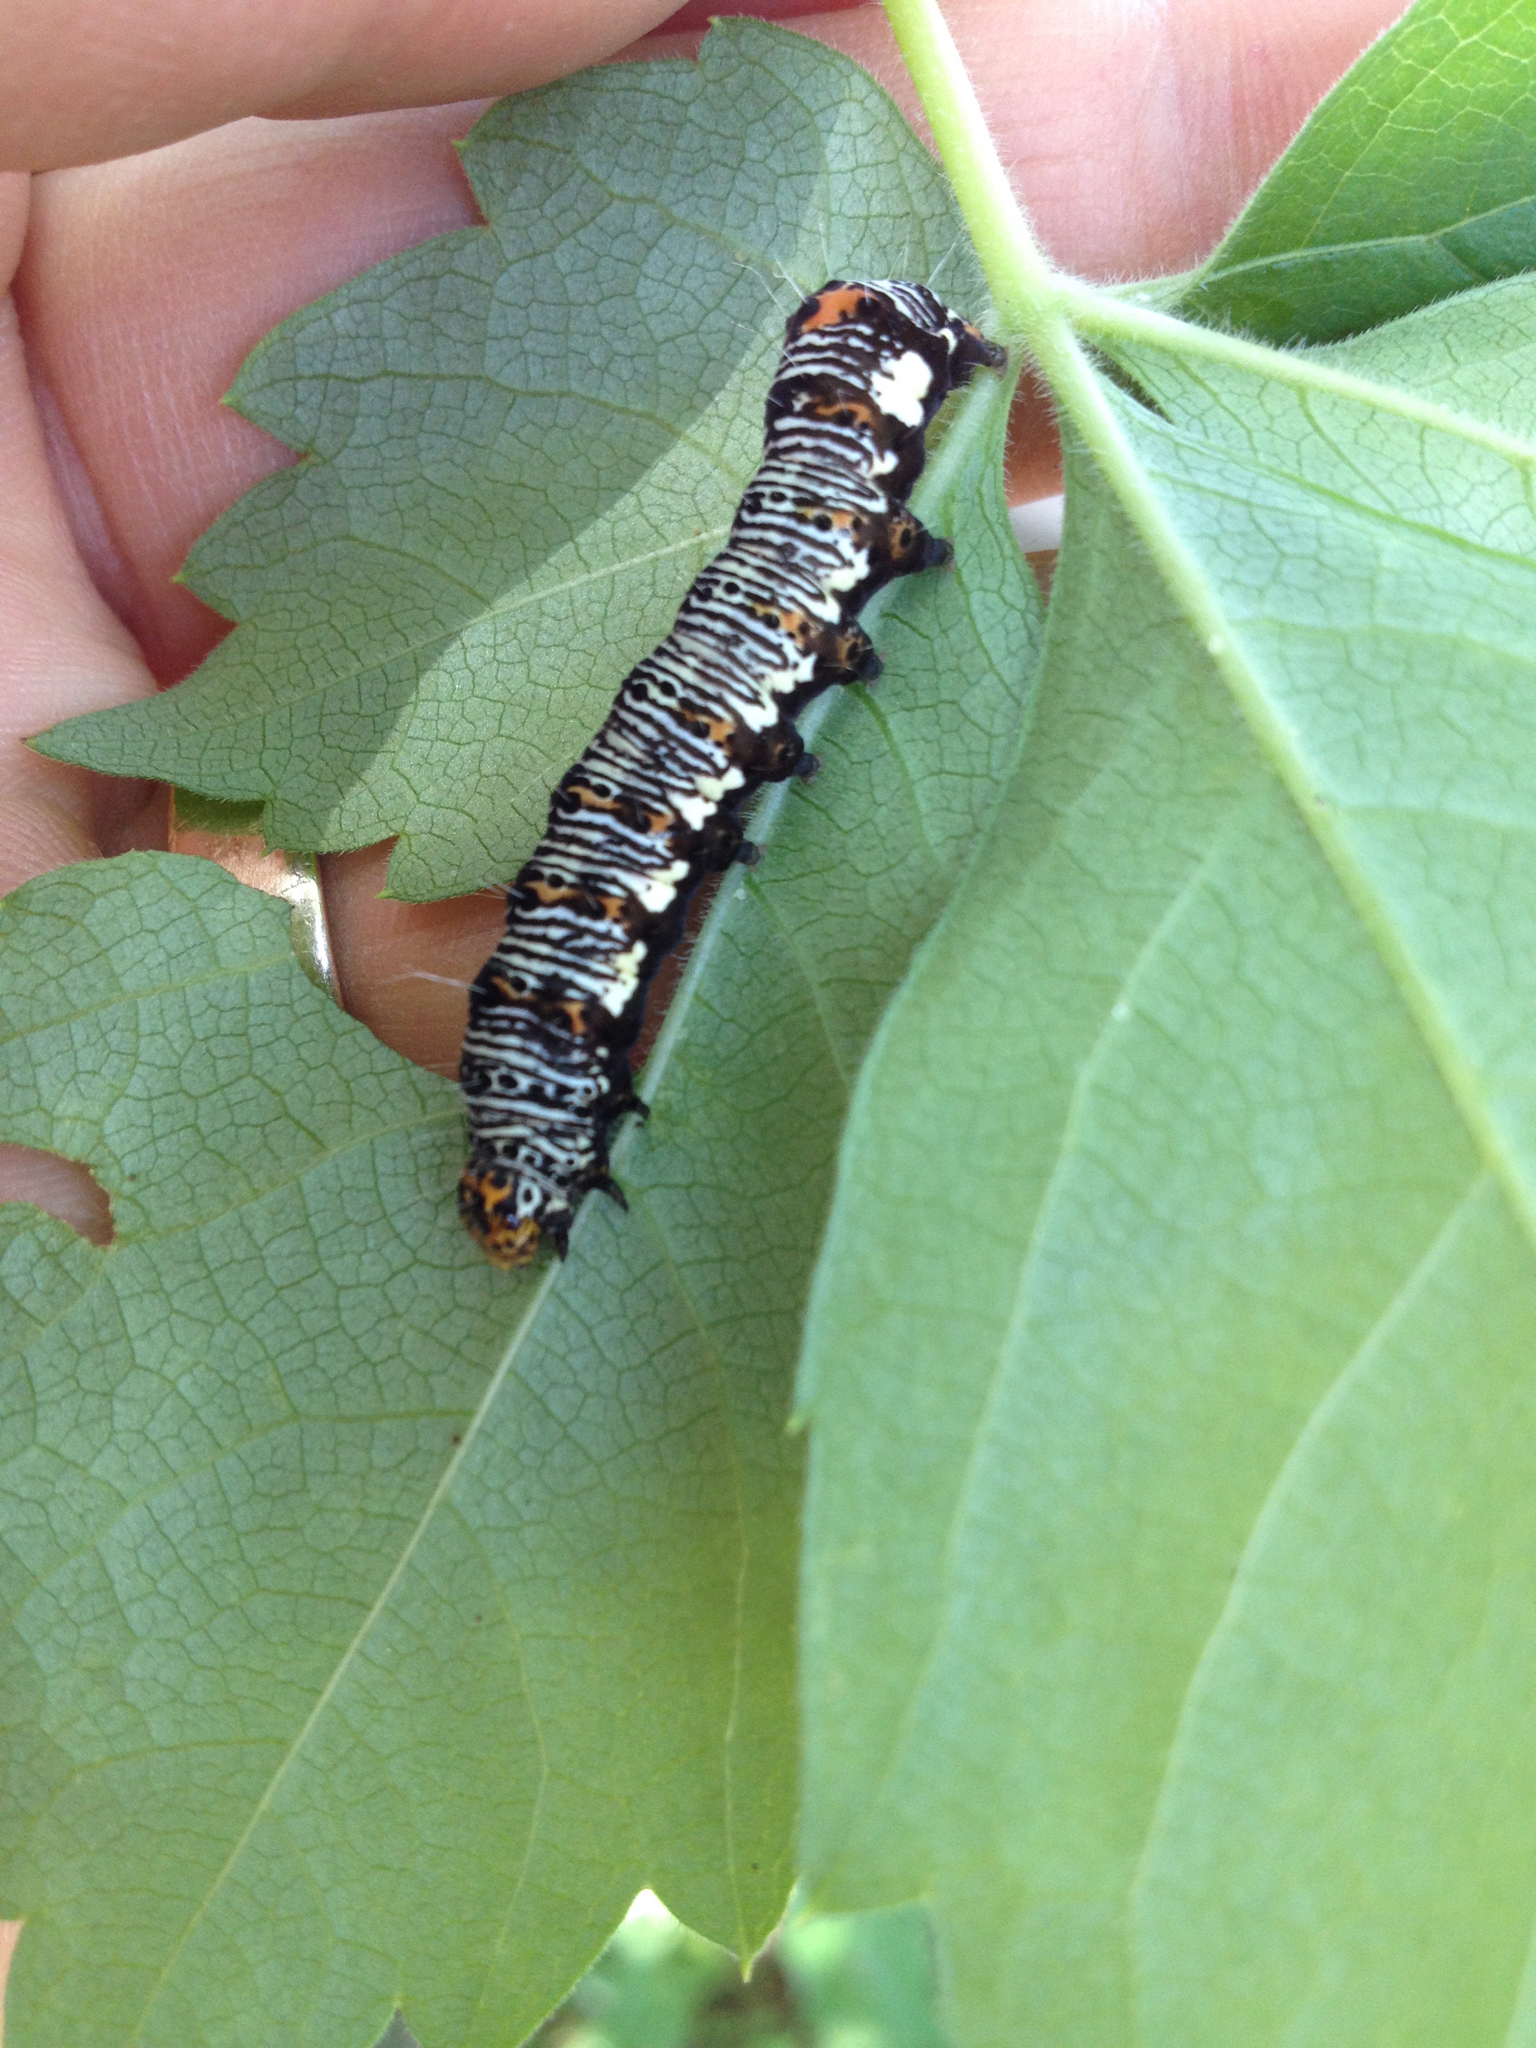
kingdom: Animalia
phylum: Arthropoda
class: Insecta
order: Lepidoptera
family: Noctuidae
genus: Alypia
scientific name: Alypia octomaculata
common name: Eight-spotted forester
